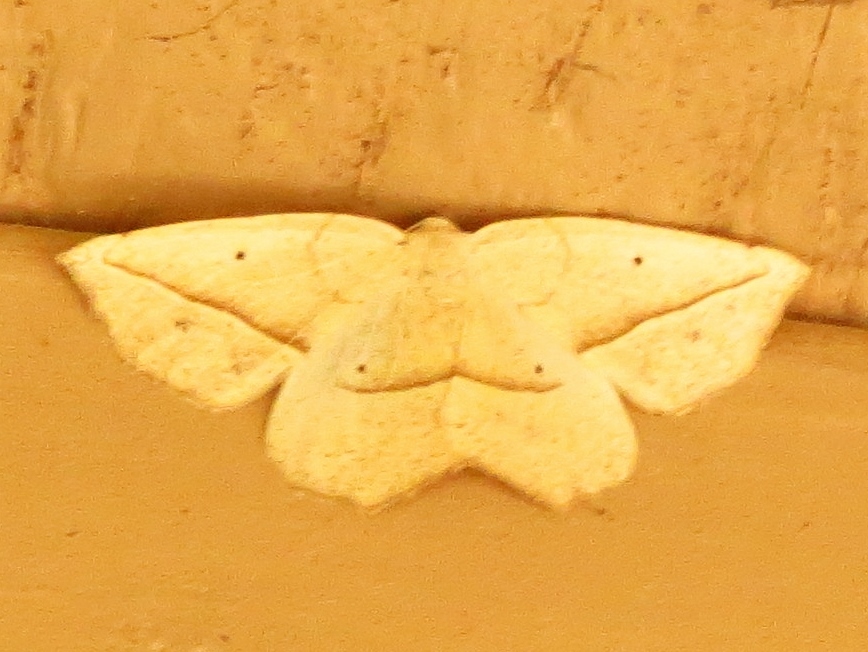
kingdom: Animalia
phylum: Arthropoda
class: Insecta
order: Lepidoptera
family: Geometridae
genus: Eusarca
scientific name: Eusarca confusaria
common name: Confused eusarca
